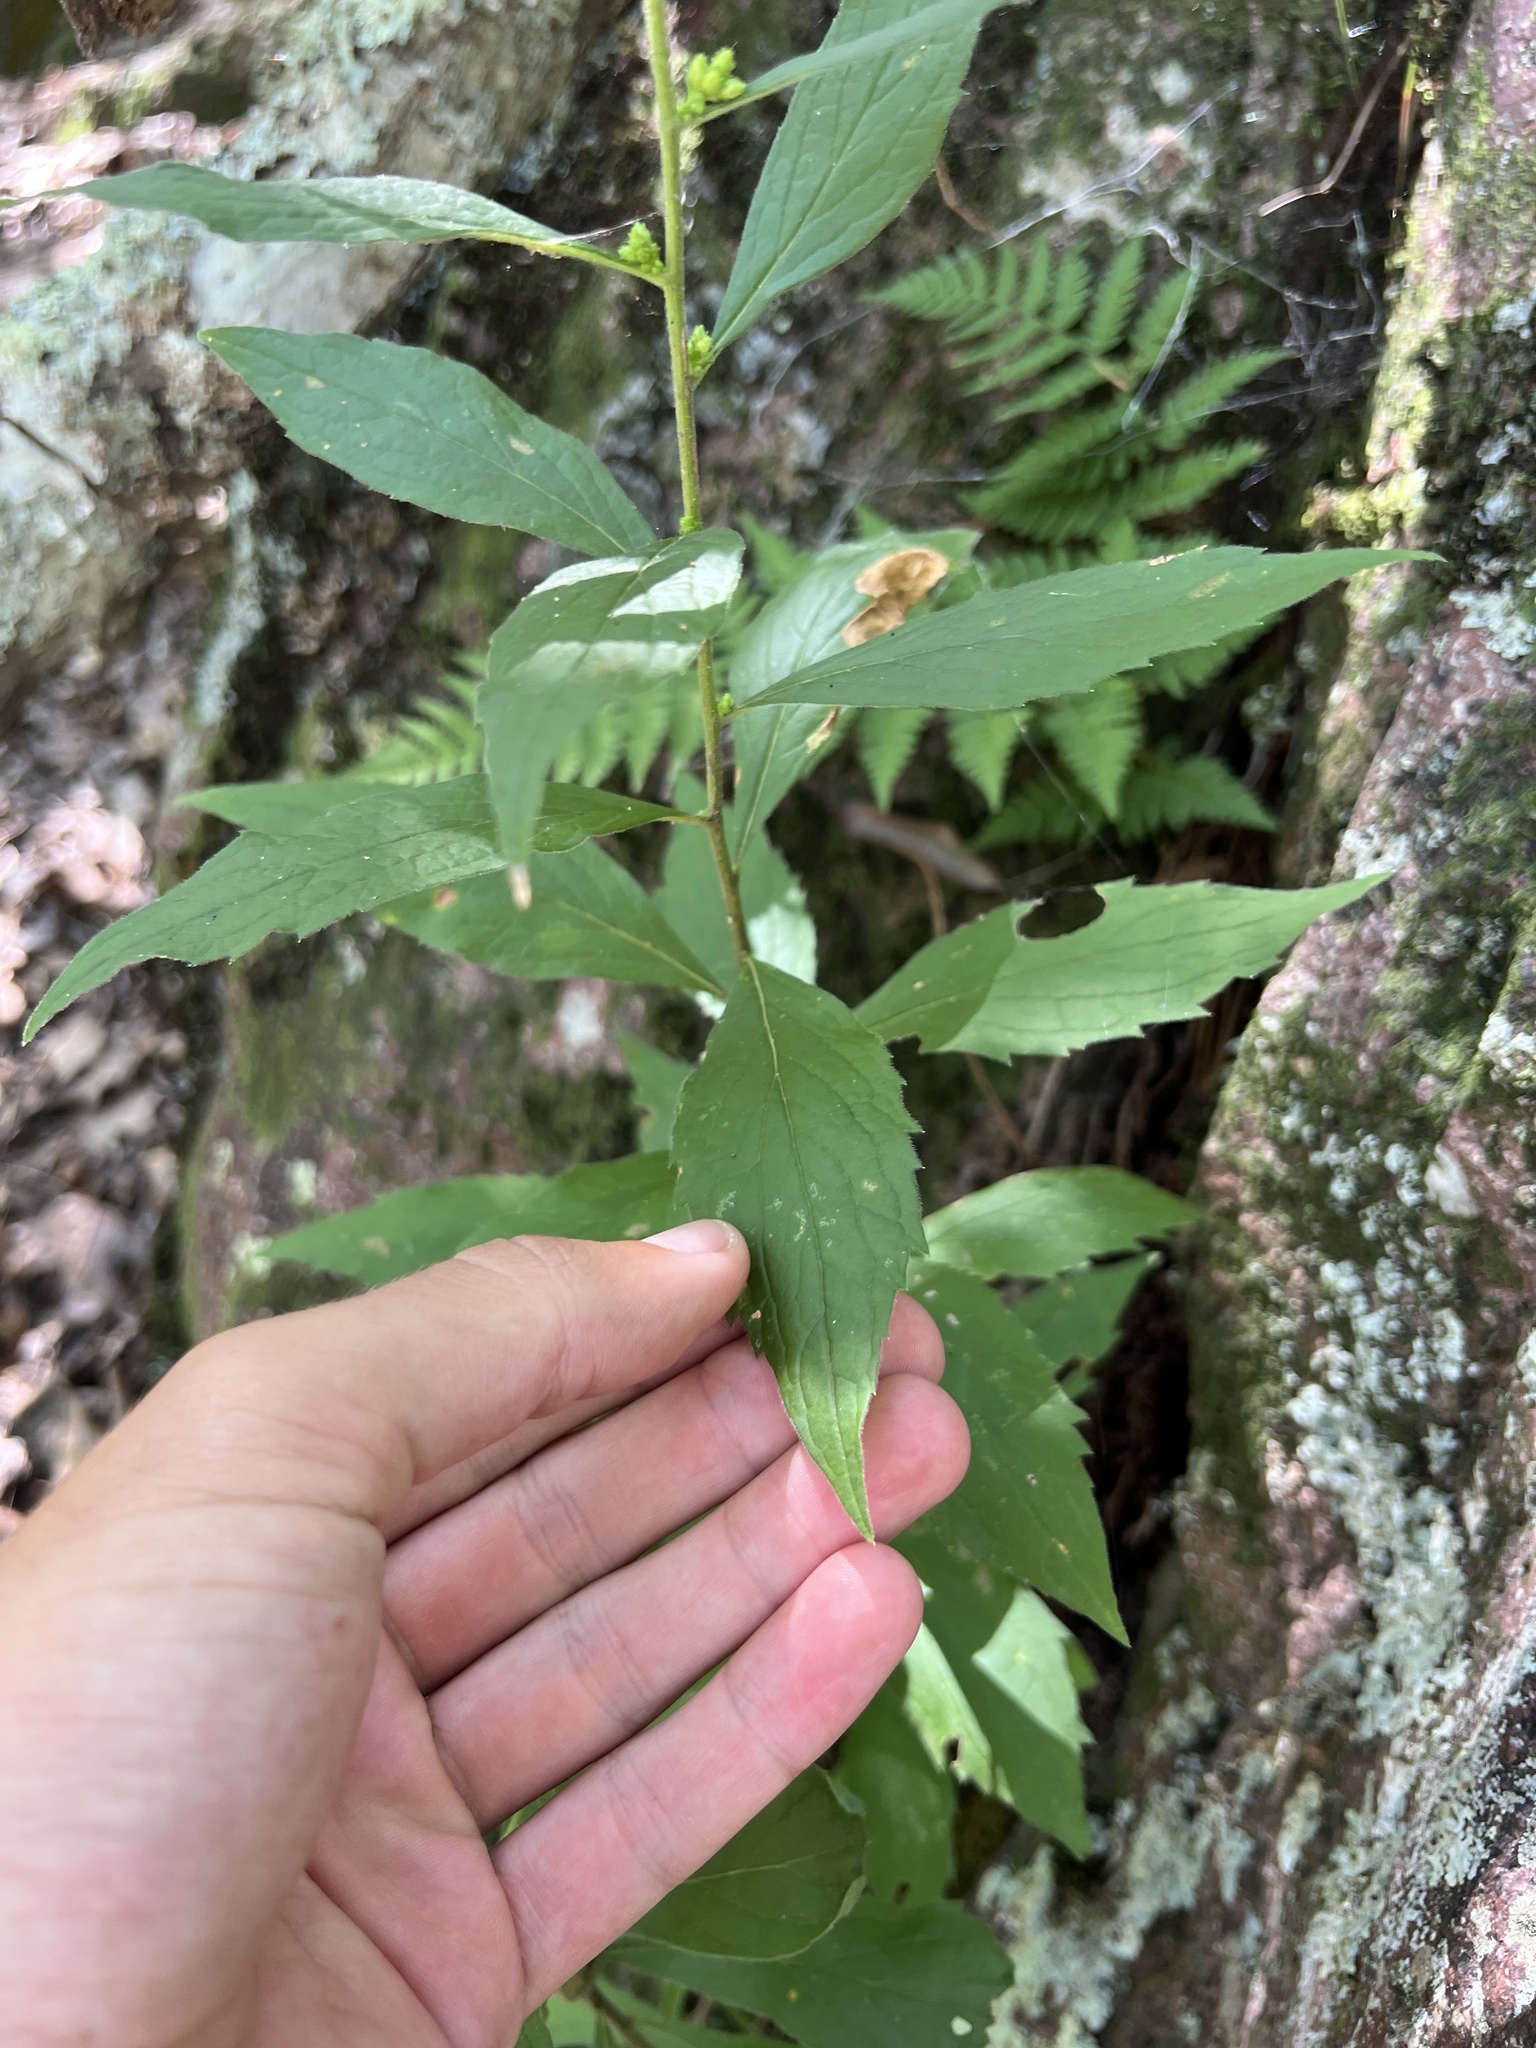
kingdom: Plantae
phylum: Tracheophyta
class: Magnoliopsida
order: Asterales
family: Asteraceae
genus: Solidago
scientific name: Solidago buckleyi
